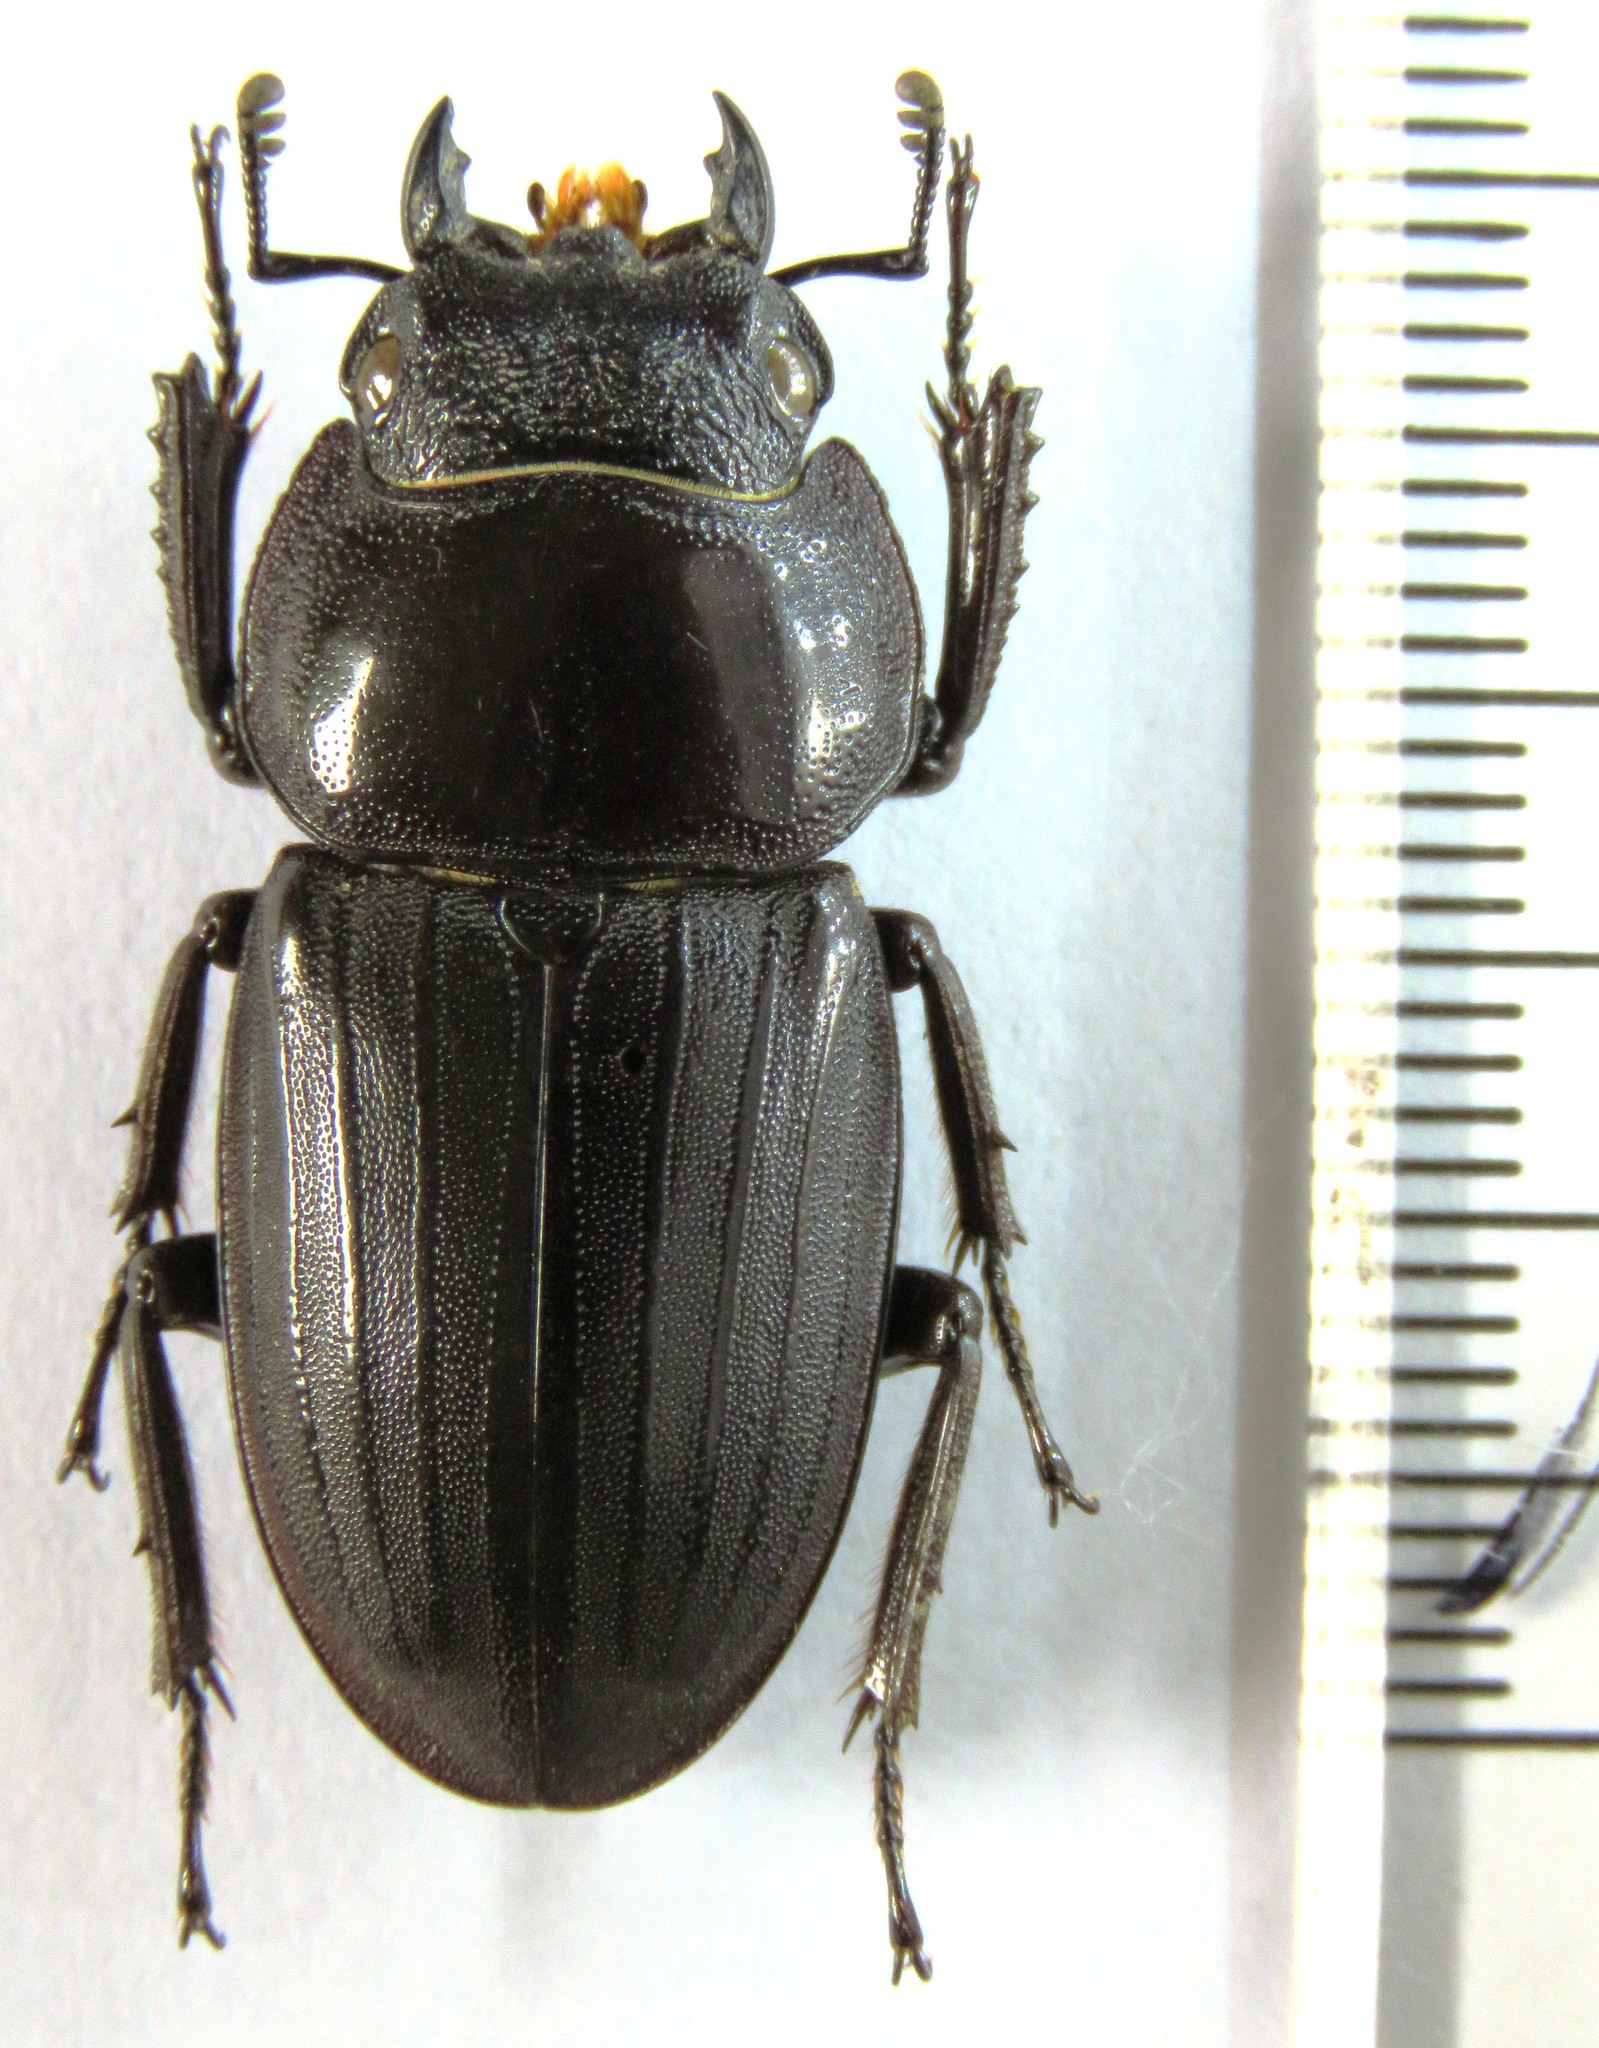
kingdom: Animalia
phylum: Arthropoda
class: Insecta
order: Coleoptera
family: Lucanidae
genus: Serrognathus
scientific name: Serrognathus titanus
